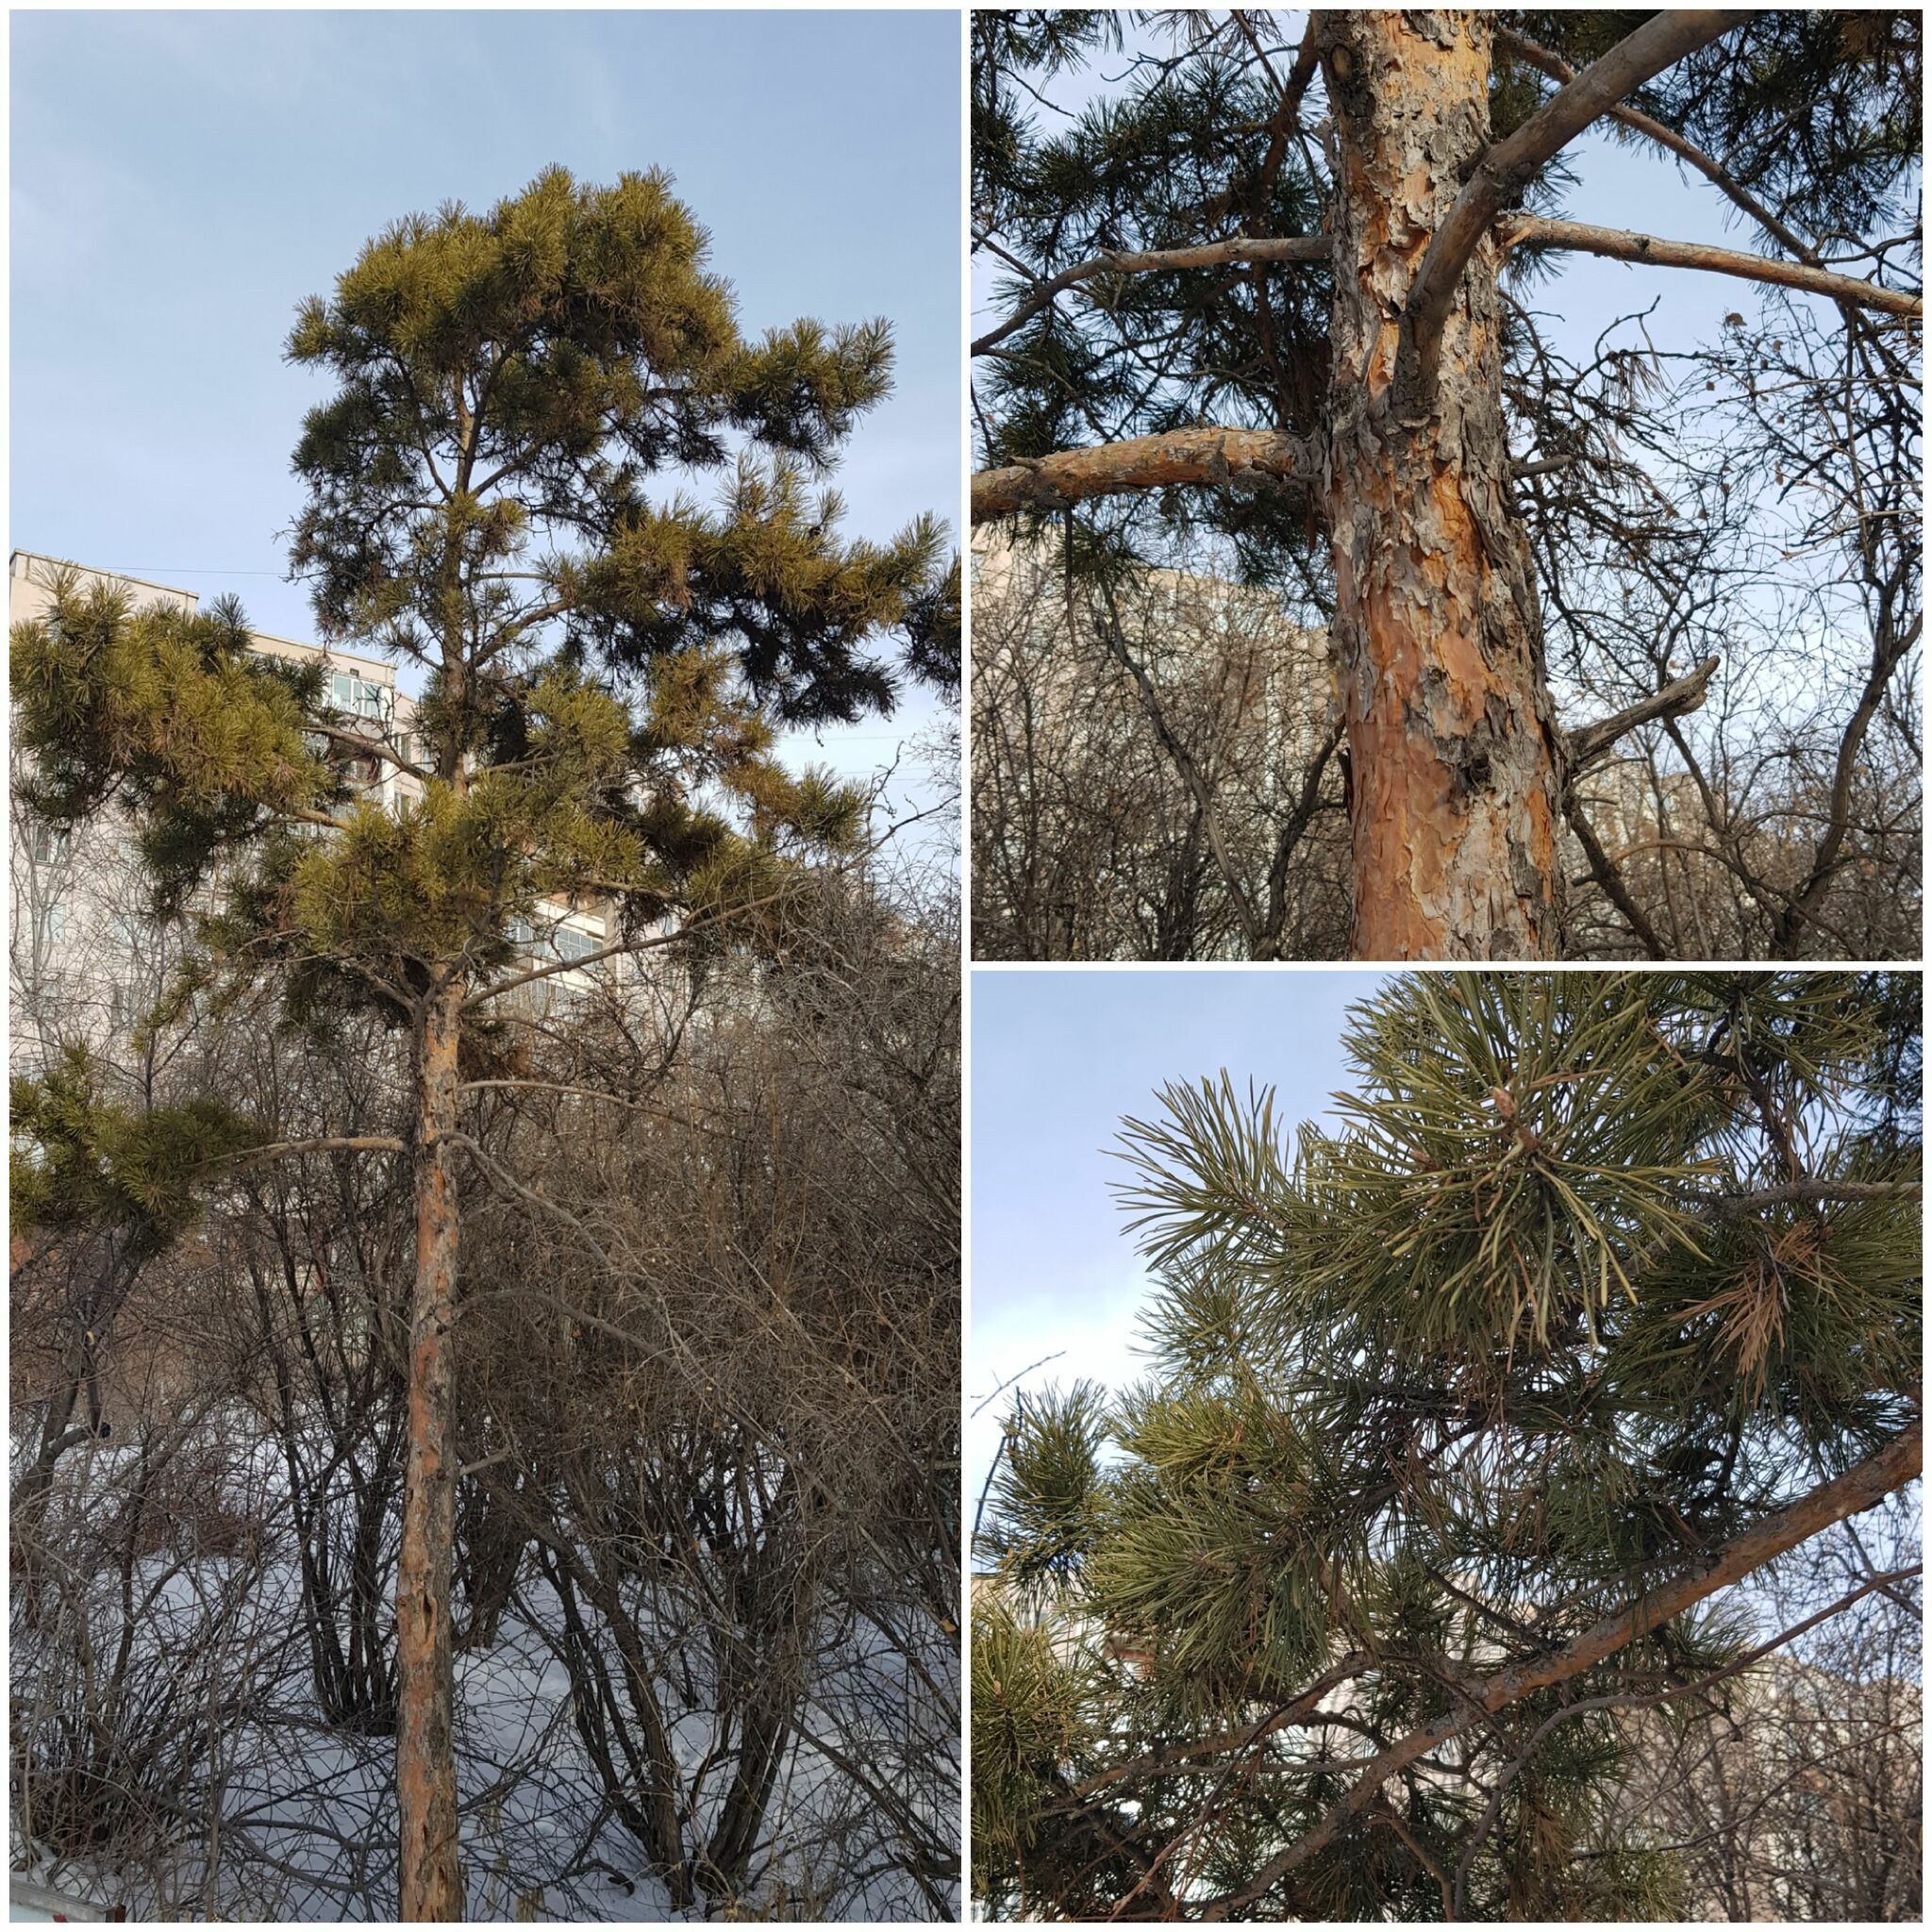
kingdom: Plantae
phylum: Tracheophyta
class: Pinopsida
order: Pinales
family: Pinaceae
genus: Pinus
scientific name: Pinus sylvestris
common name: Scots pine
